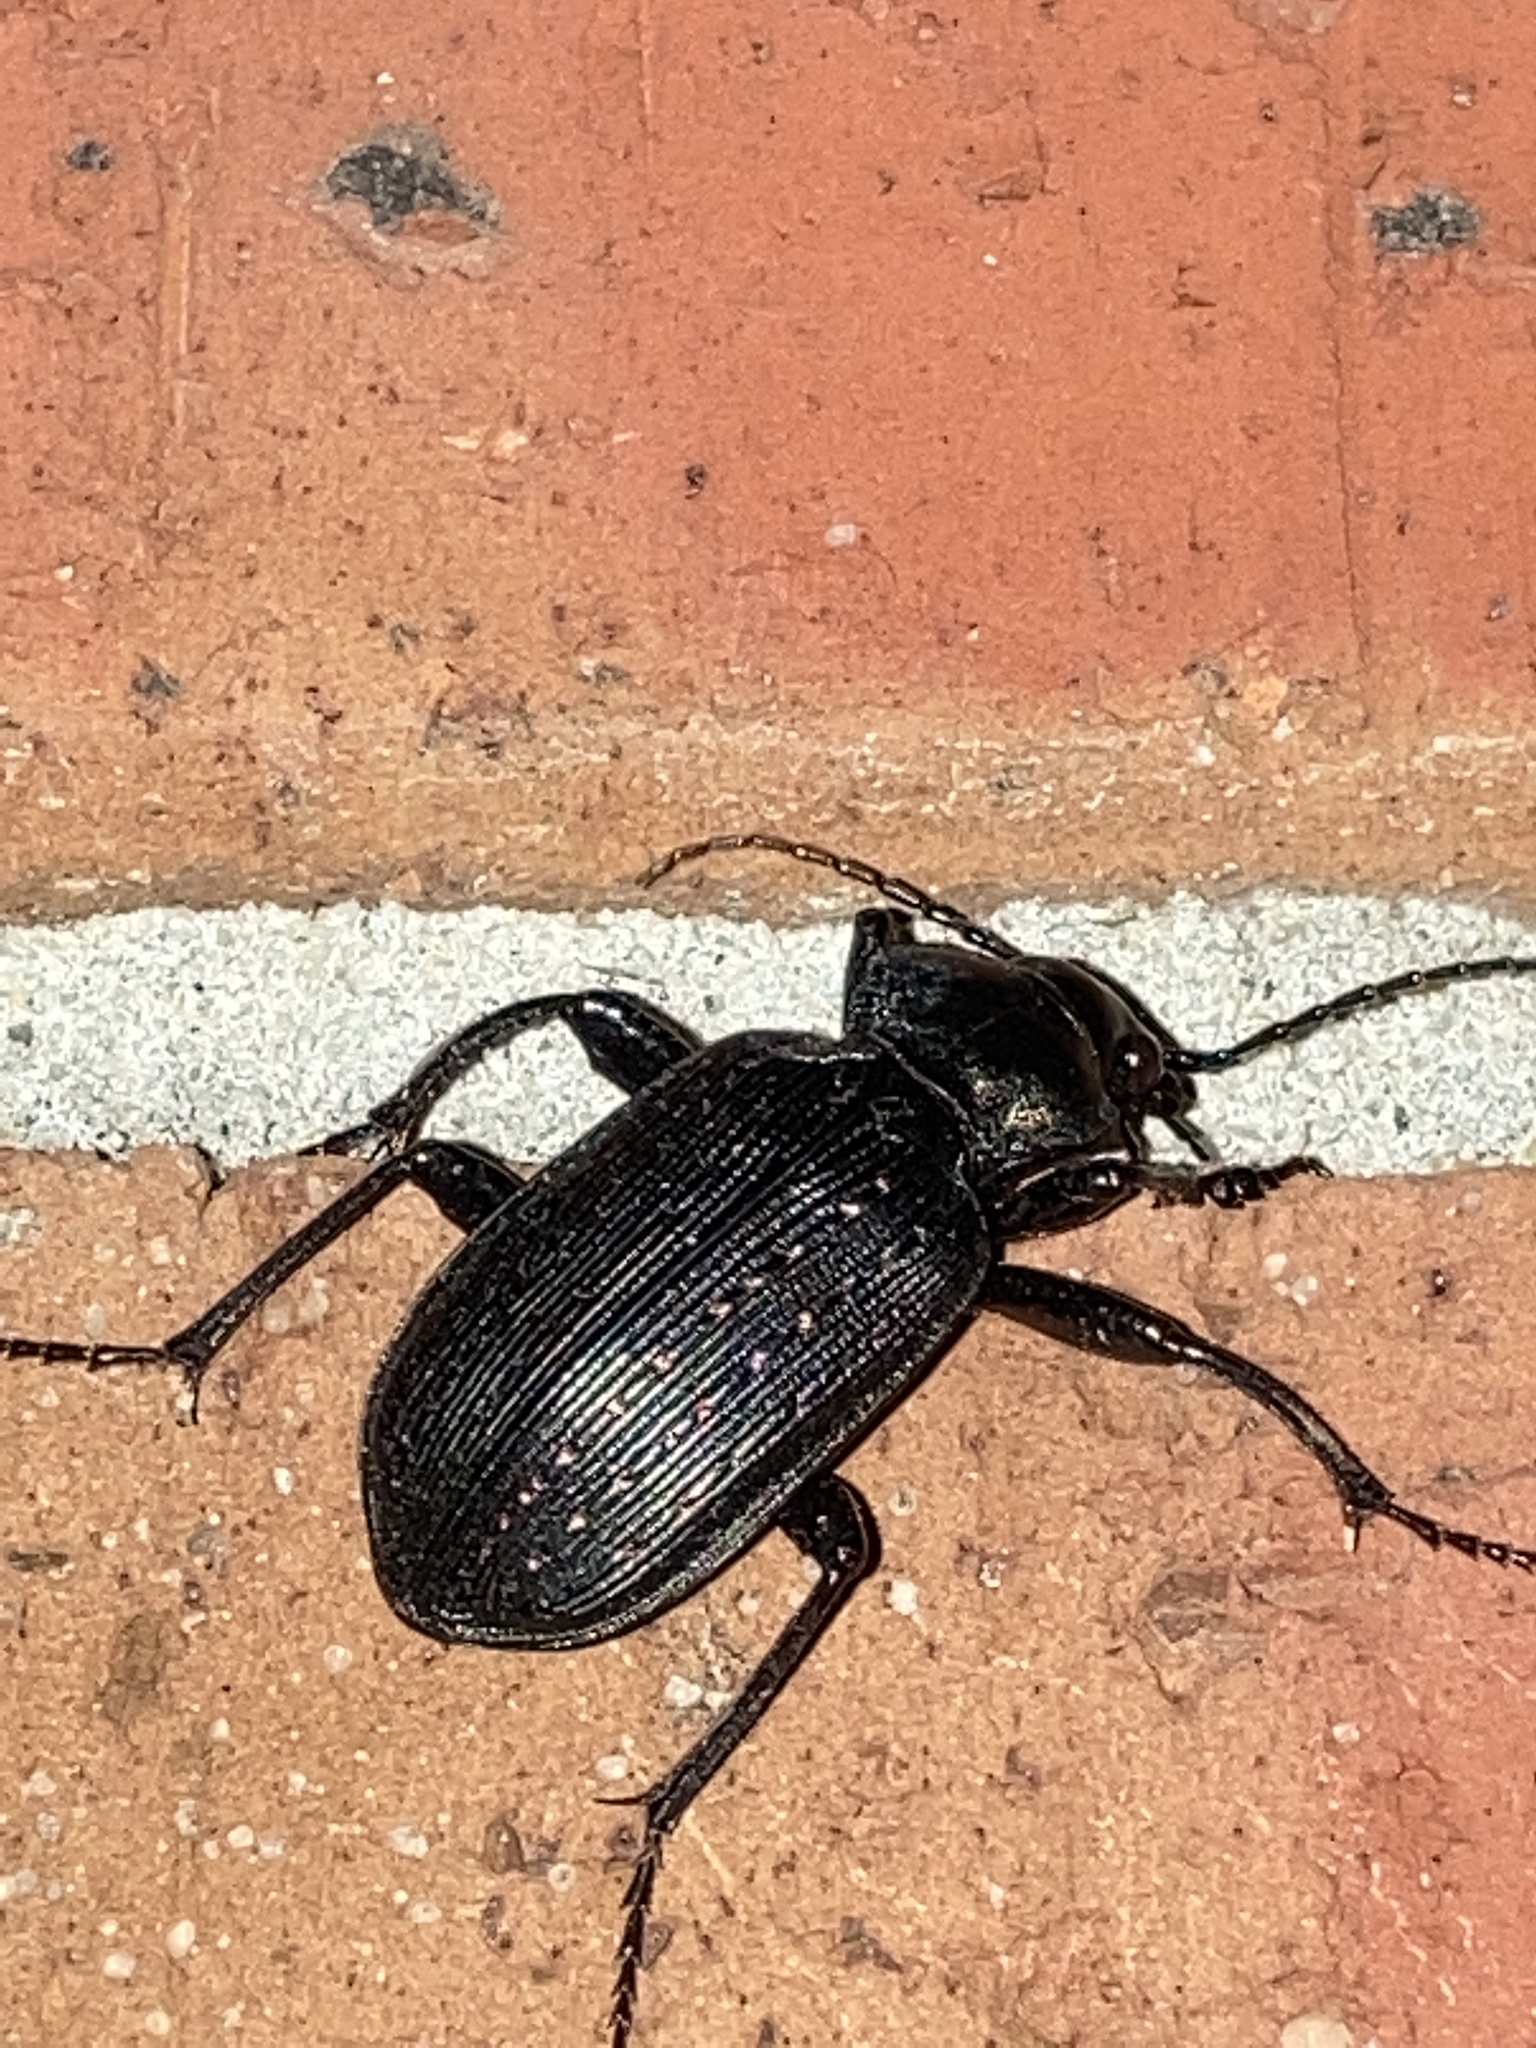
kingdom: Animalia
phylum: Arthropoda
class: Insecta
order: Coleoptera
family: Carabidae
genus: Calosoma
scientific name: Calosoma sayi
